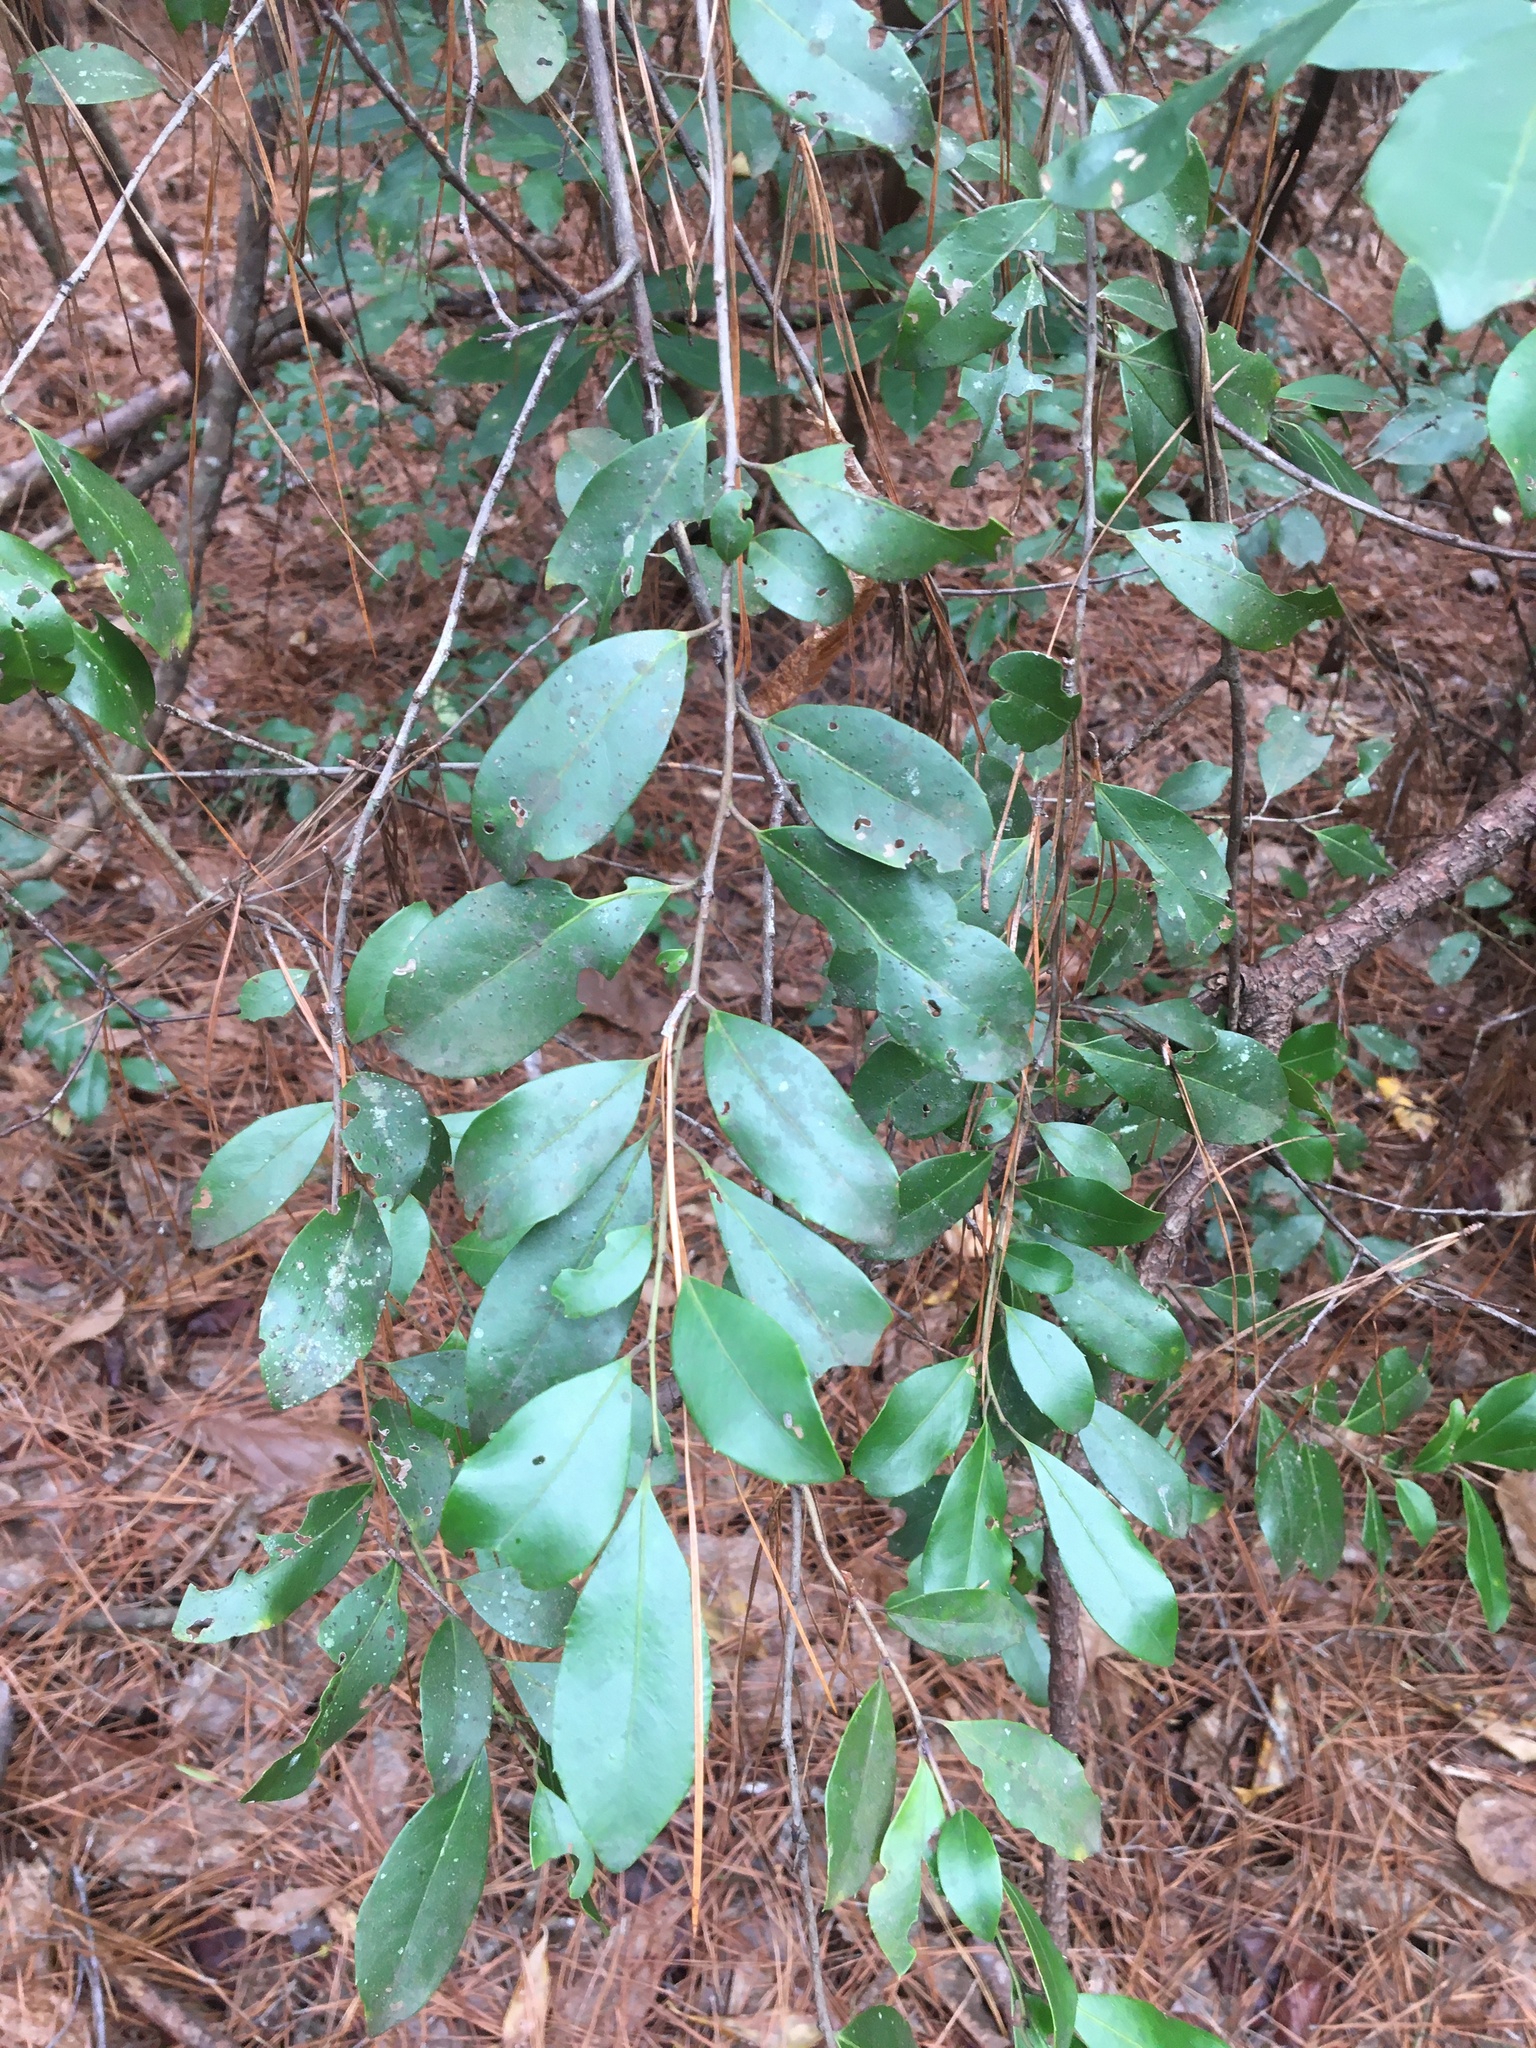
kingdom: Plantae
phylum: Tracheophyta
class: Magnoliopsida
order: Rosales
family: Rosaceae
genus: Prunus
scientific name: Prunus caroliniana
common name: Carolina laurel cherry
